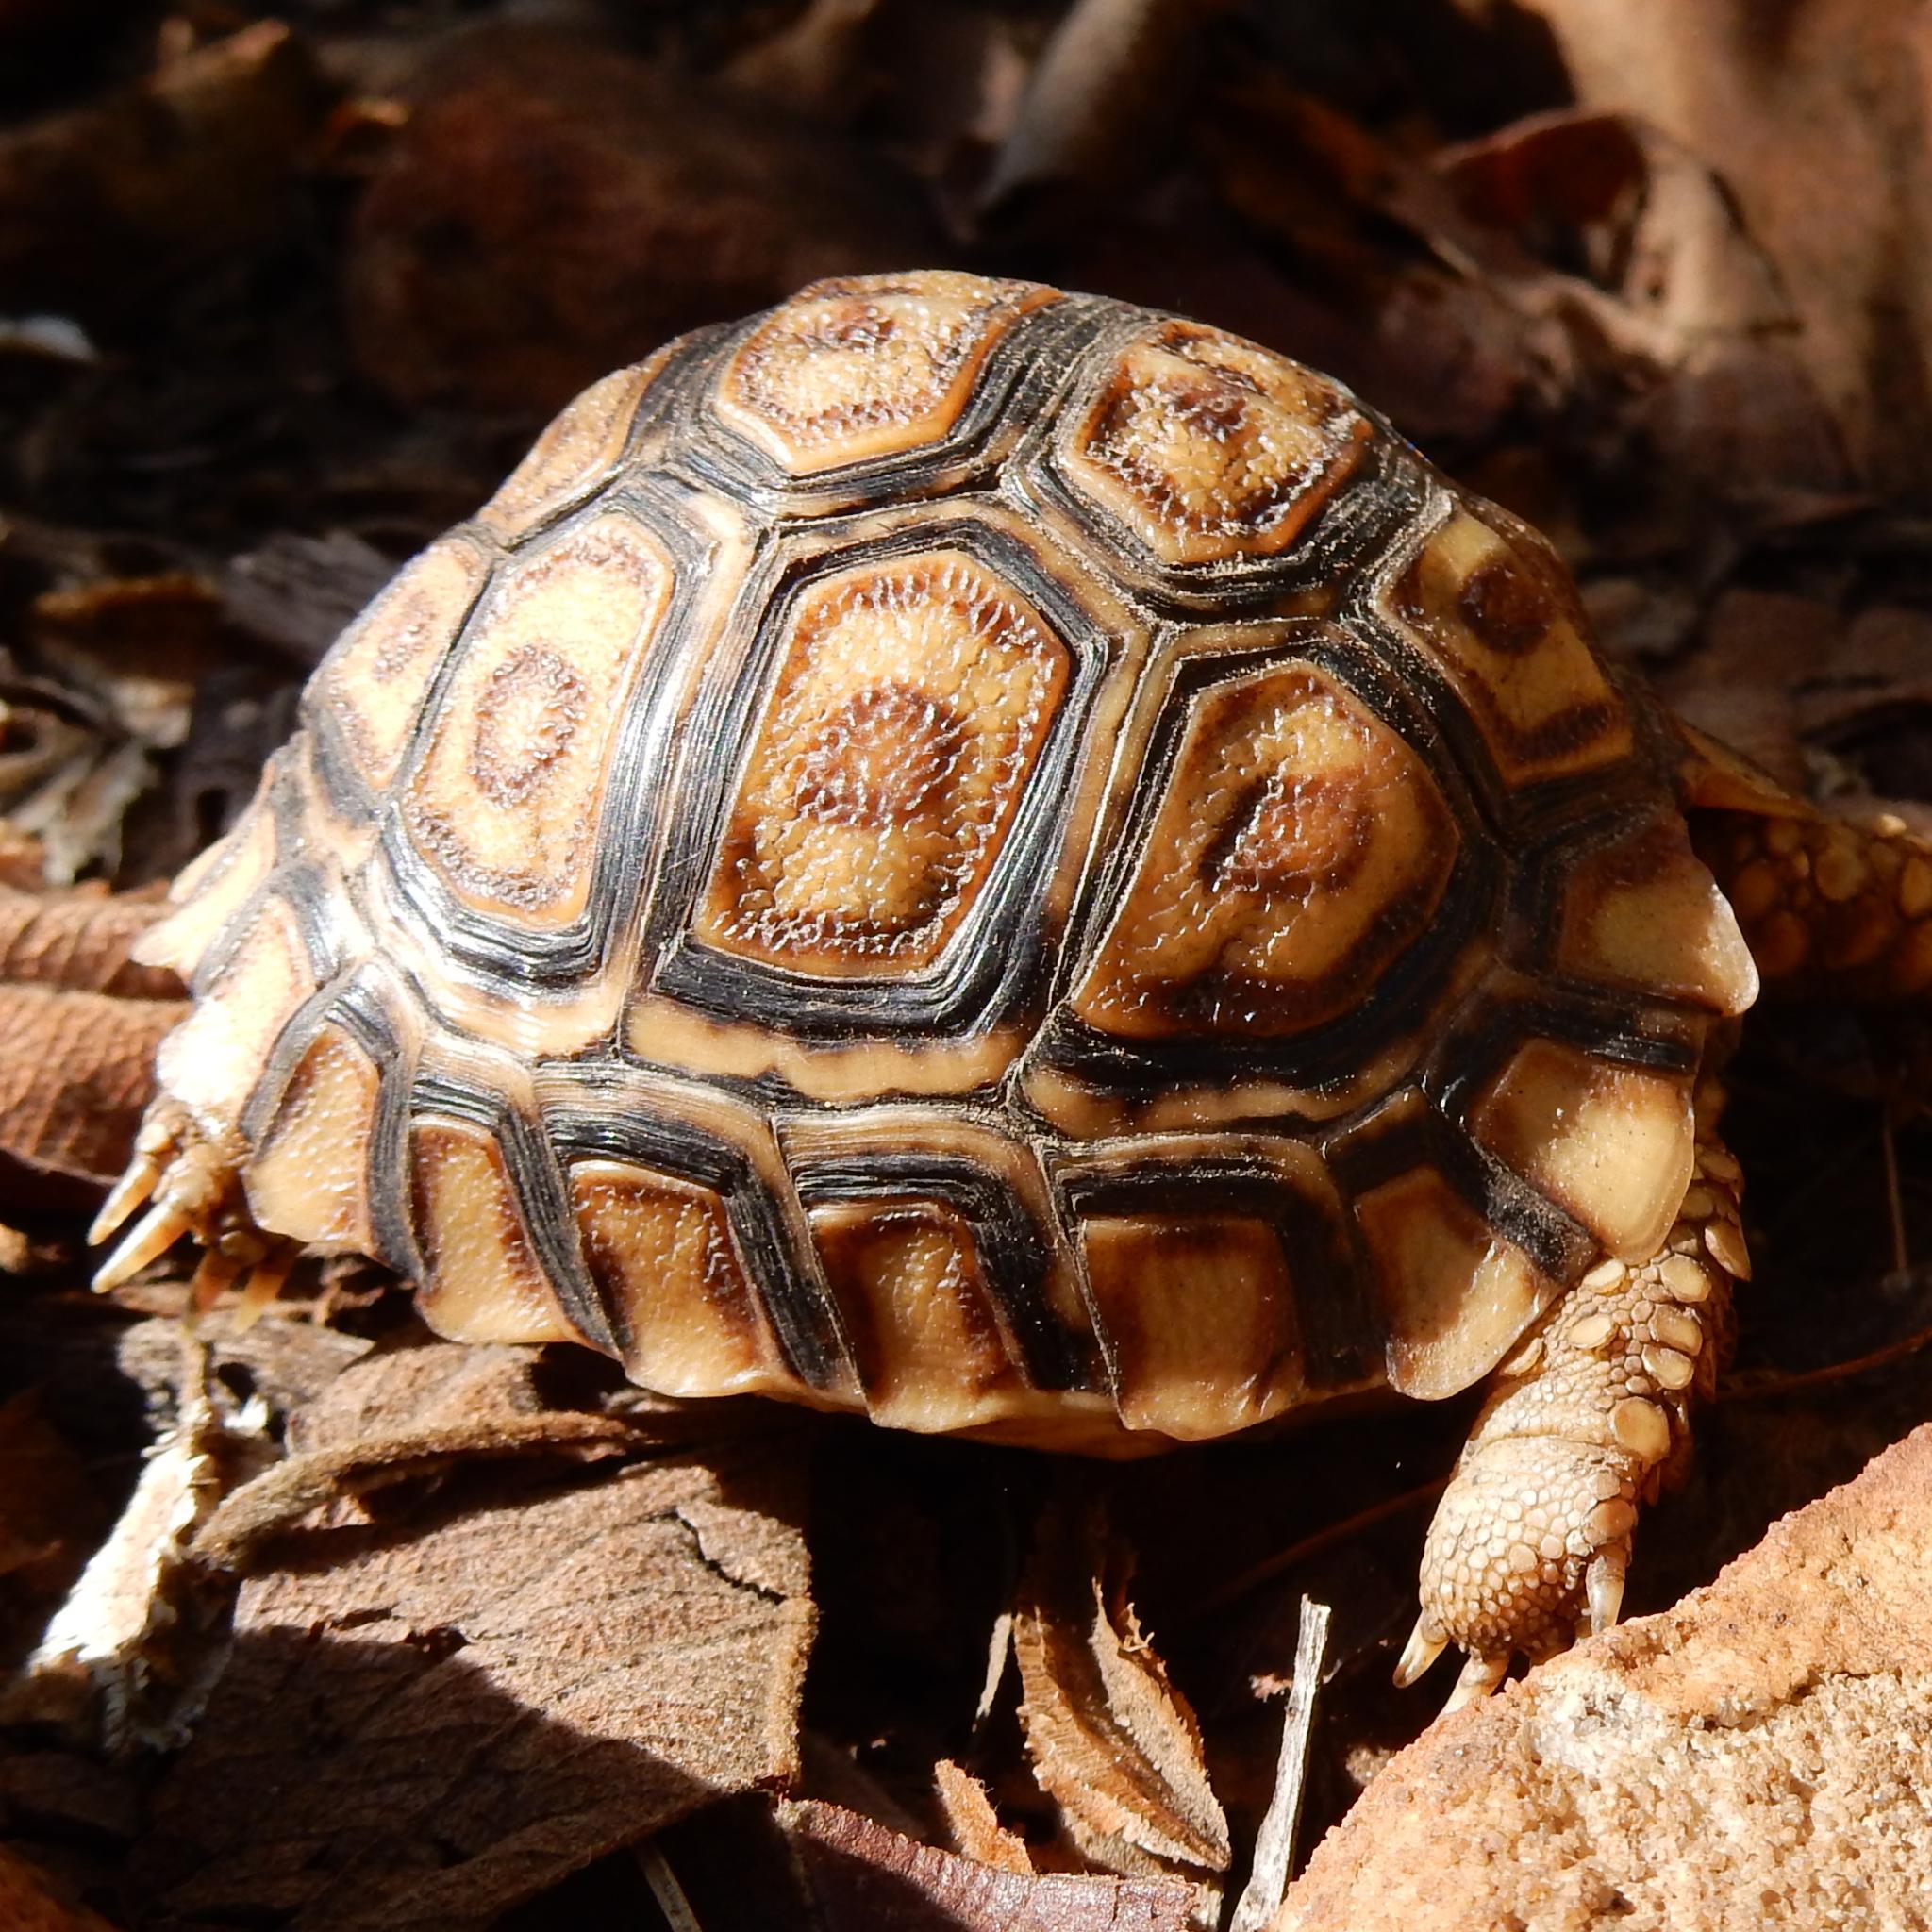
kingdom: Animalia
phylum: Chordata
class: Testudines
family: Testudinidae
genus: Stigmochelys
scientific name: Stigmochelys pardalis
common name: Leopard tortoise
